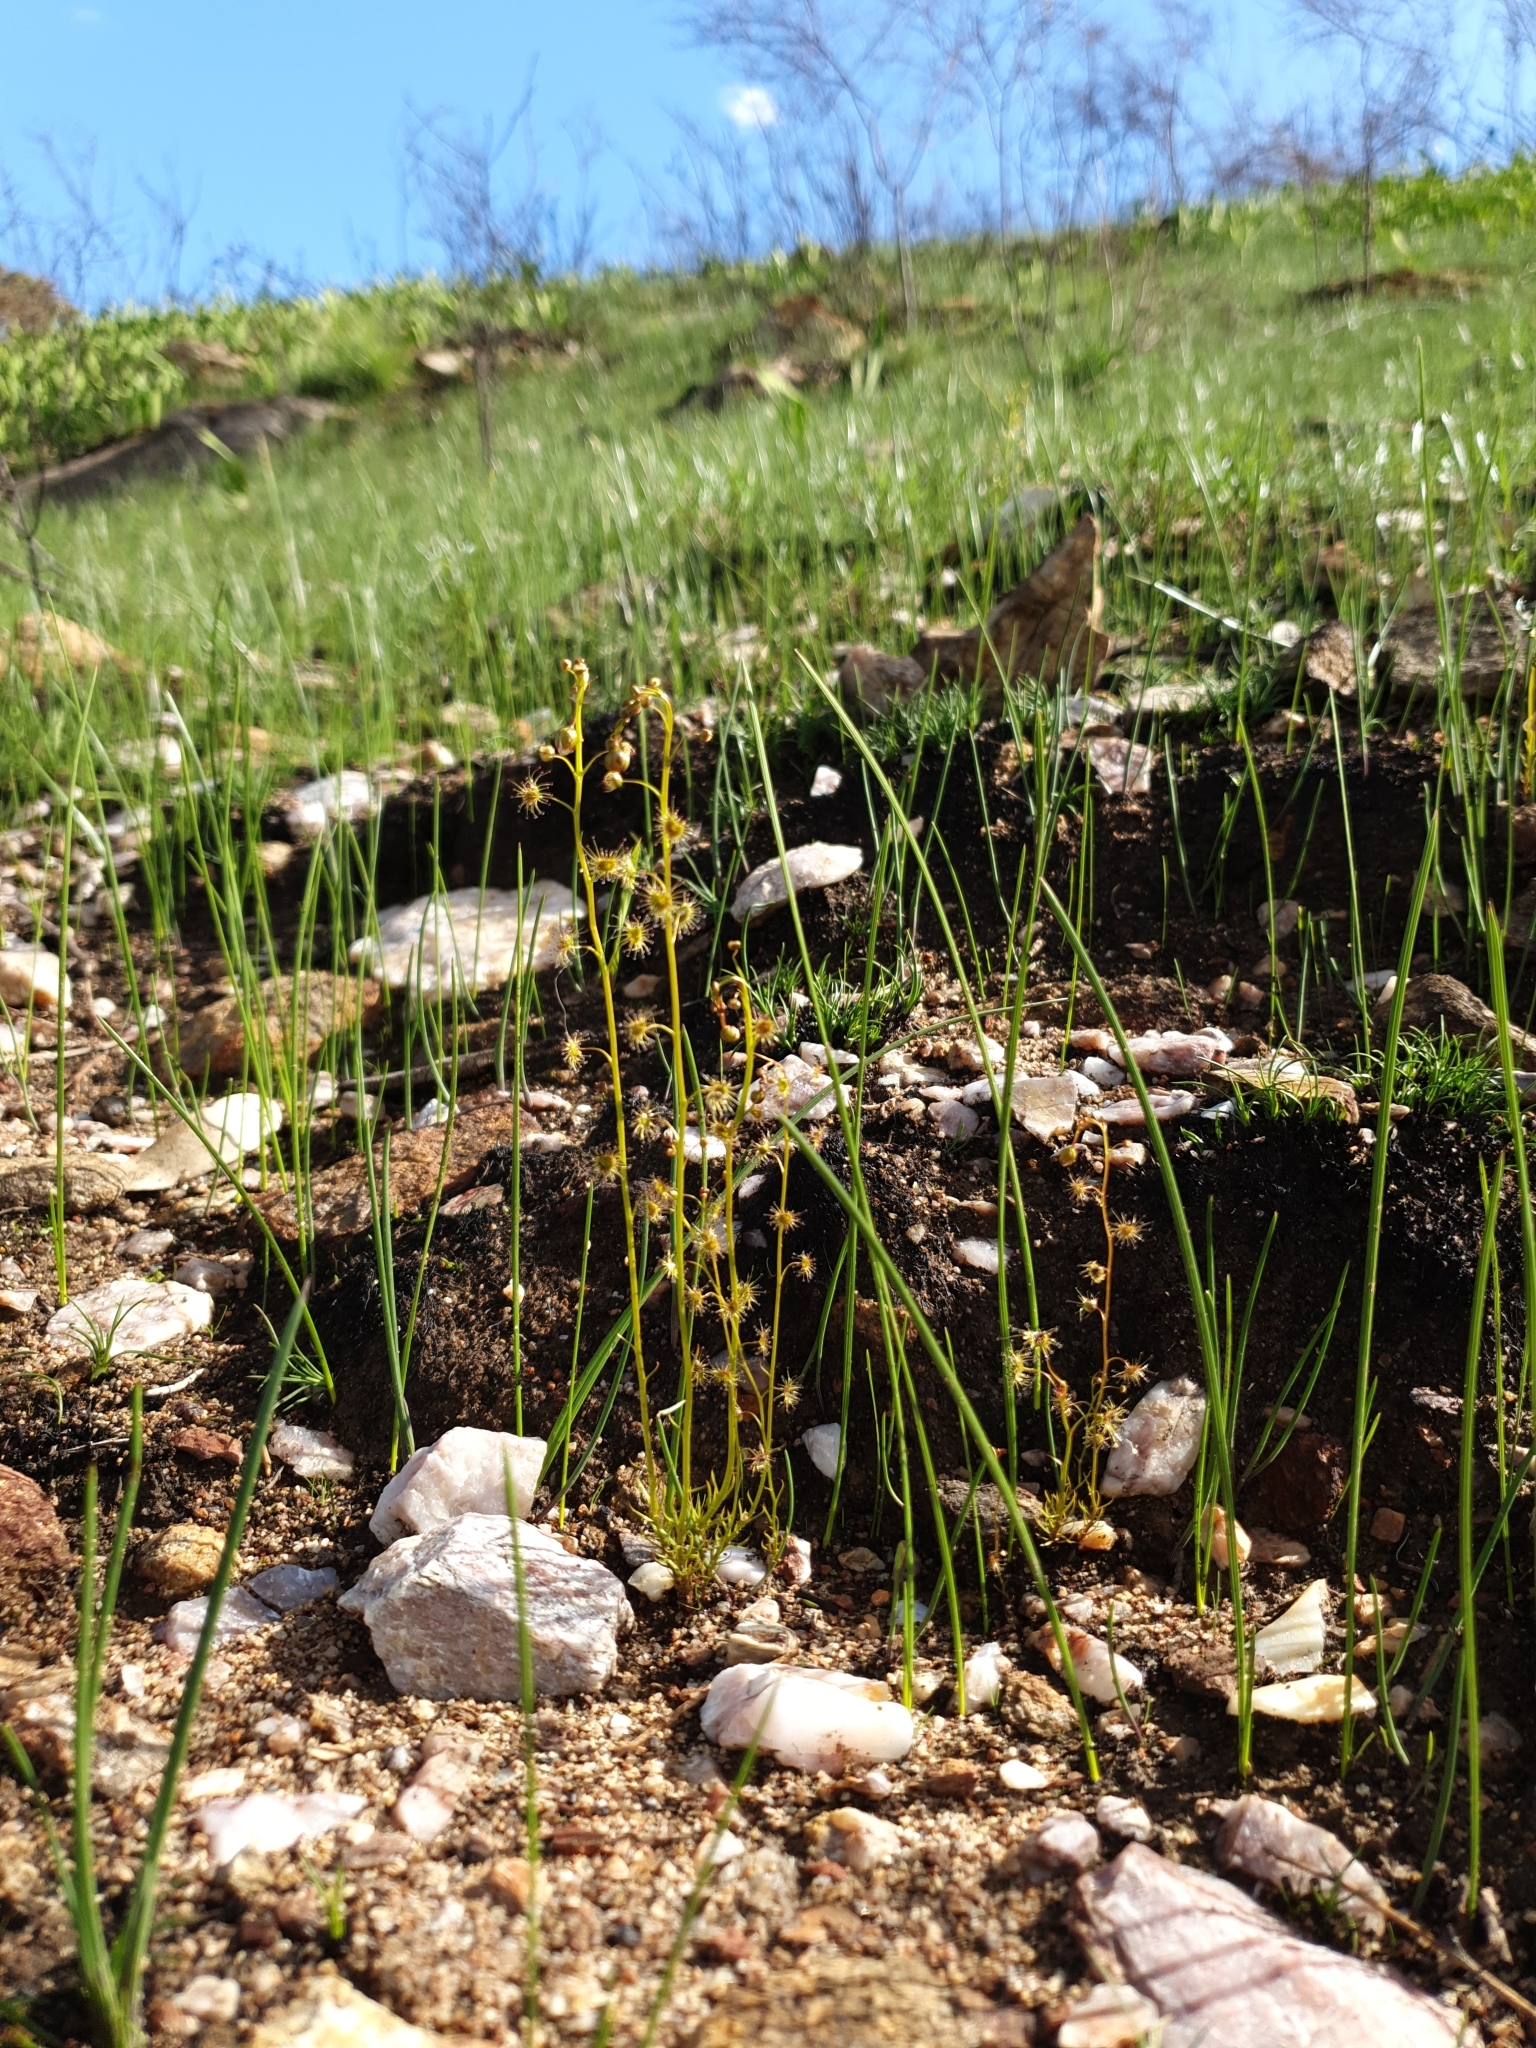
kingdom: Plantae
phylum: Tracheophyta
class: Magnoliopsida
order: Caryophyllales
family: Droseraceae
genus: Drosera
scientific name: Drosera heterophylla
